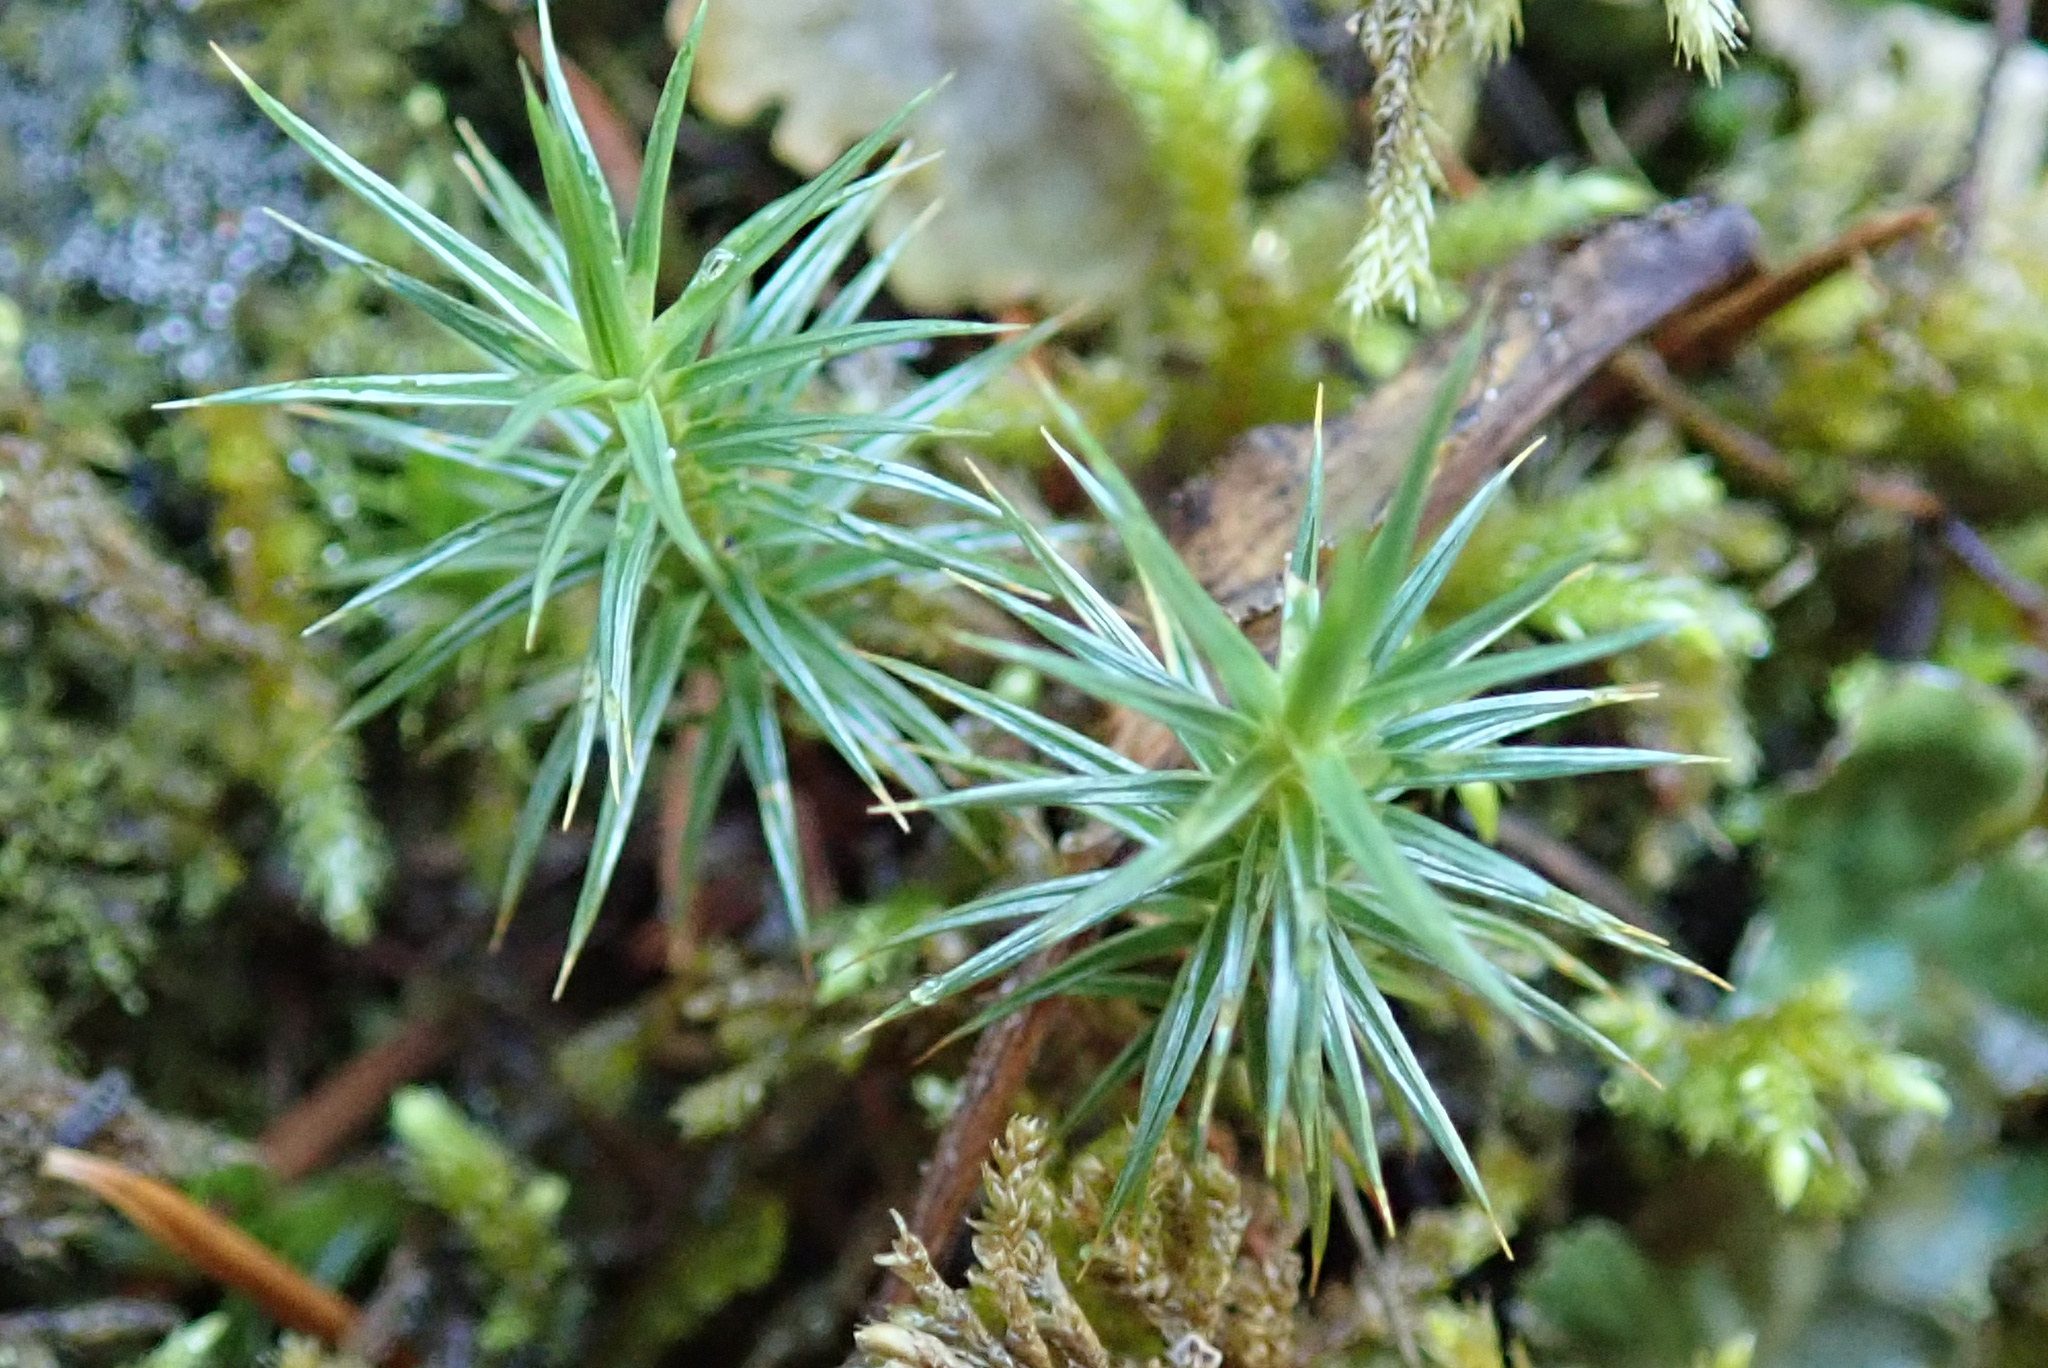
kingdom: Plantae
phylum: Bryophyta
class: Polytrichopsida
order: Polytrichales
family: Polytrichaceae
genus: Polytrichum
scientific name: Polytrichum juniperinum
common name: Juniper haircap moss
